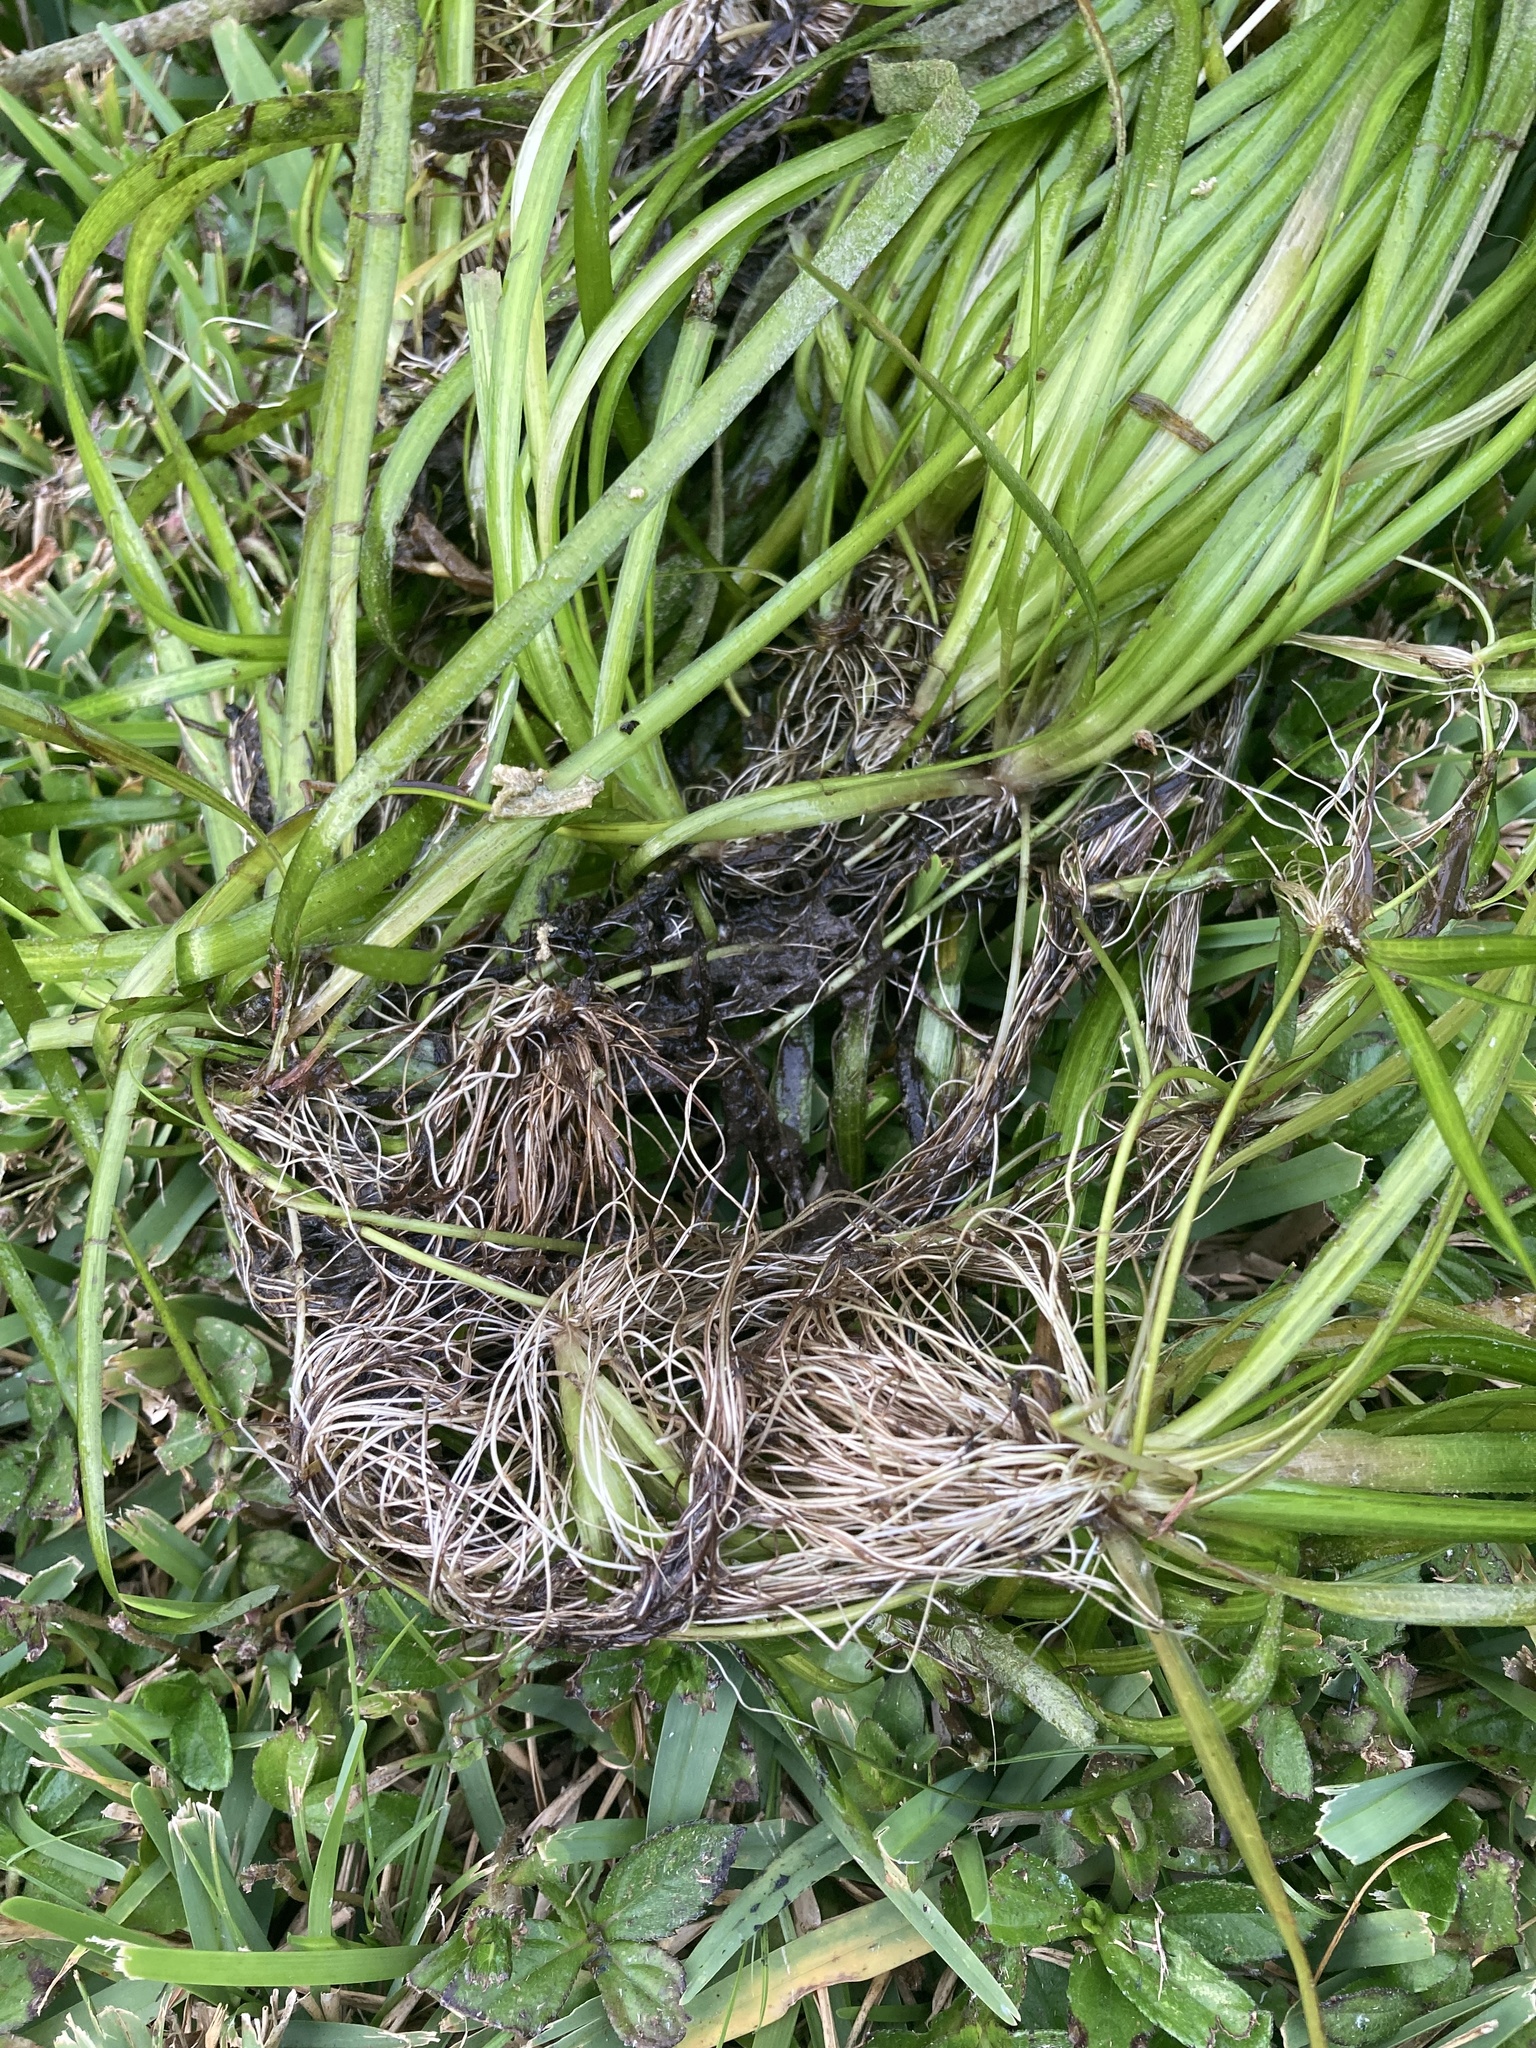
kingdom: Plantae
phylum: Tracheophyta
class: Liliopsida
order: Alismatales
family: Hydrocharitaceae
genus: Vallisneria
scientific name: Vallisneria americana
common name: American eelgrass
